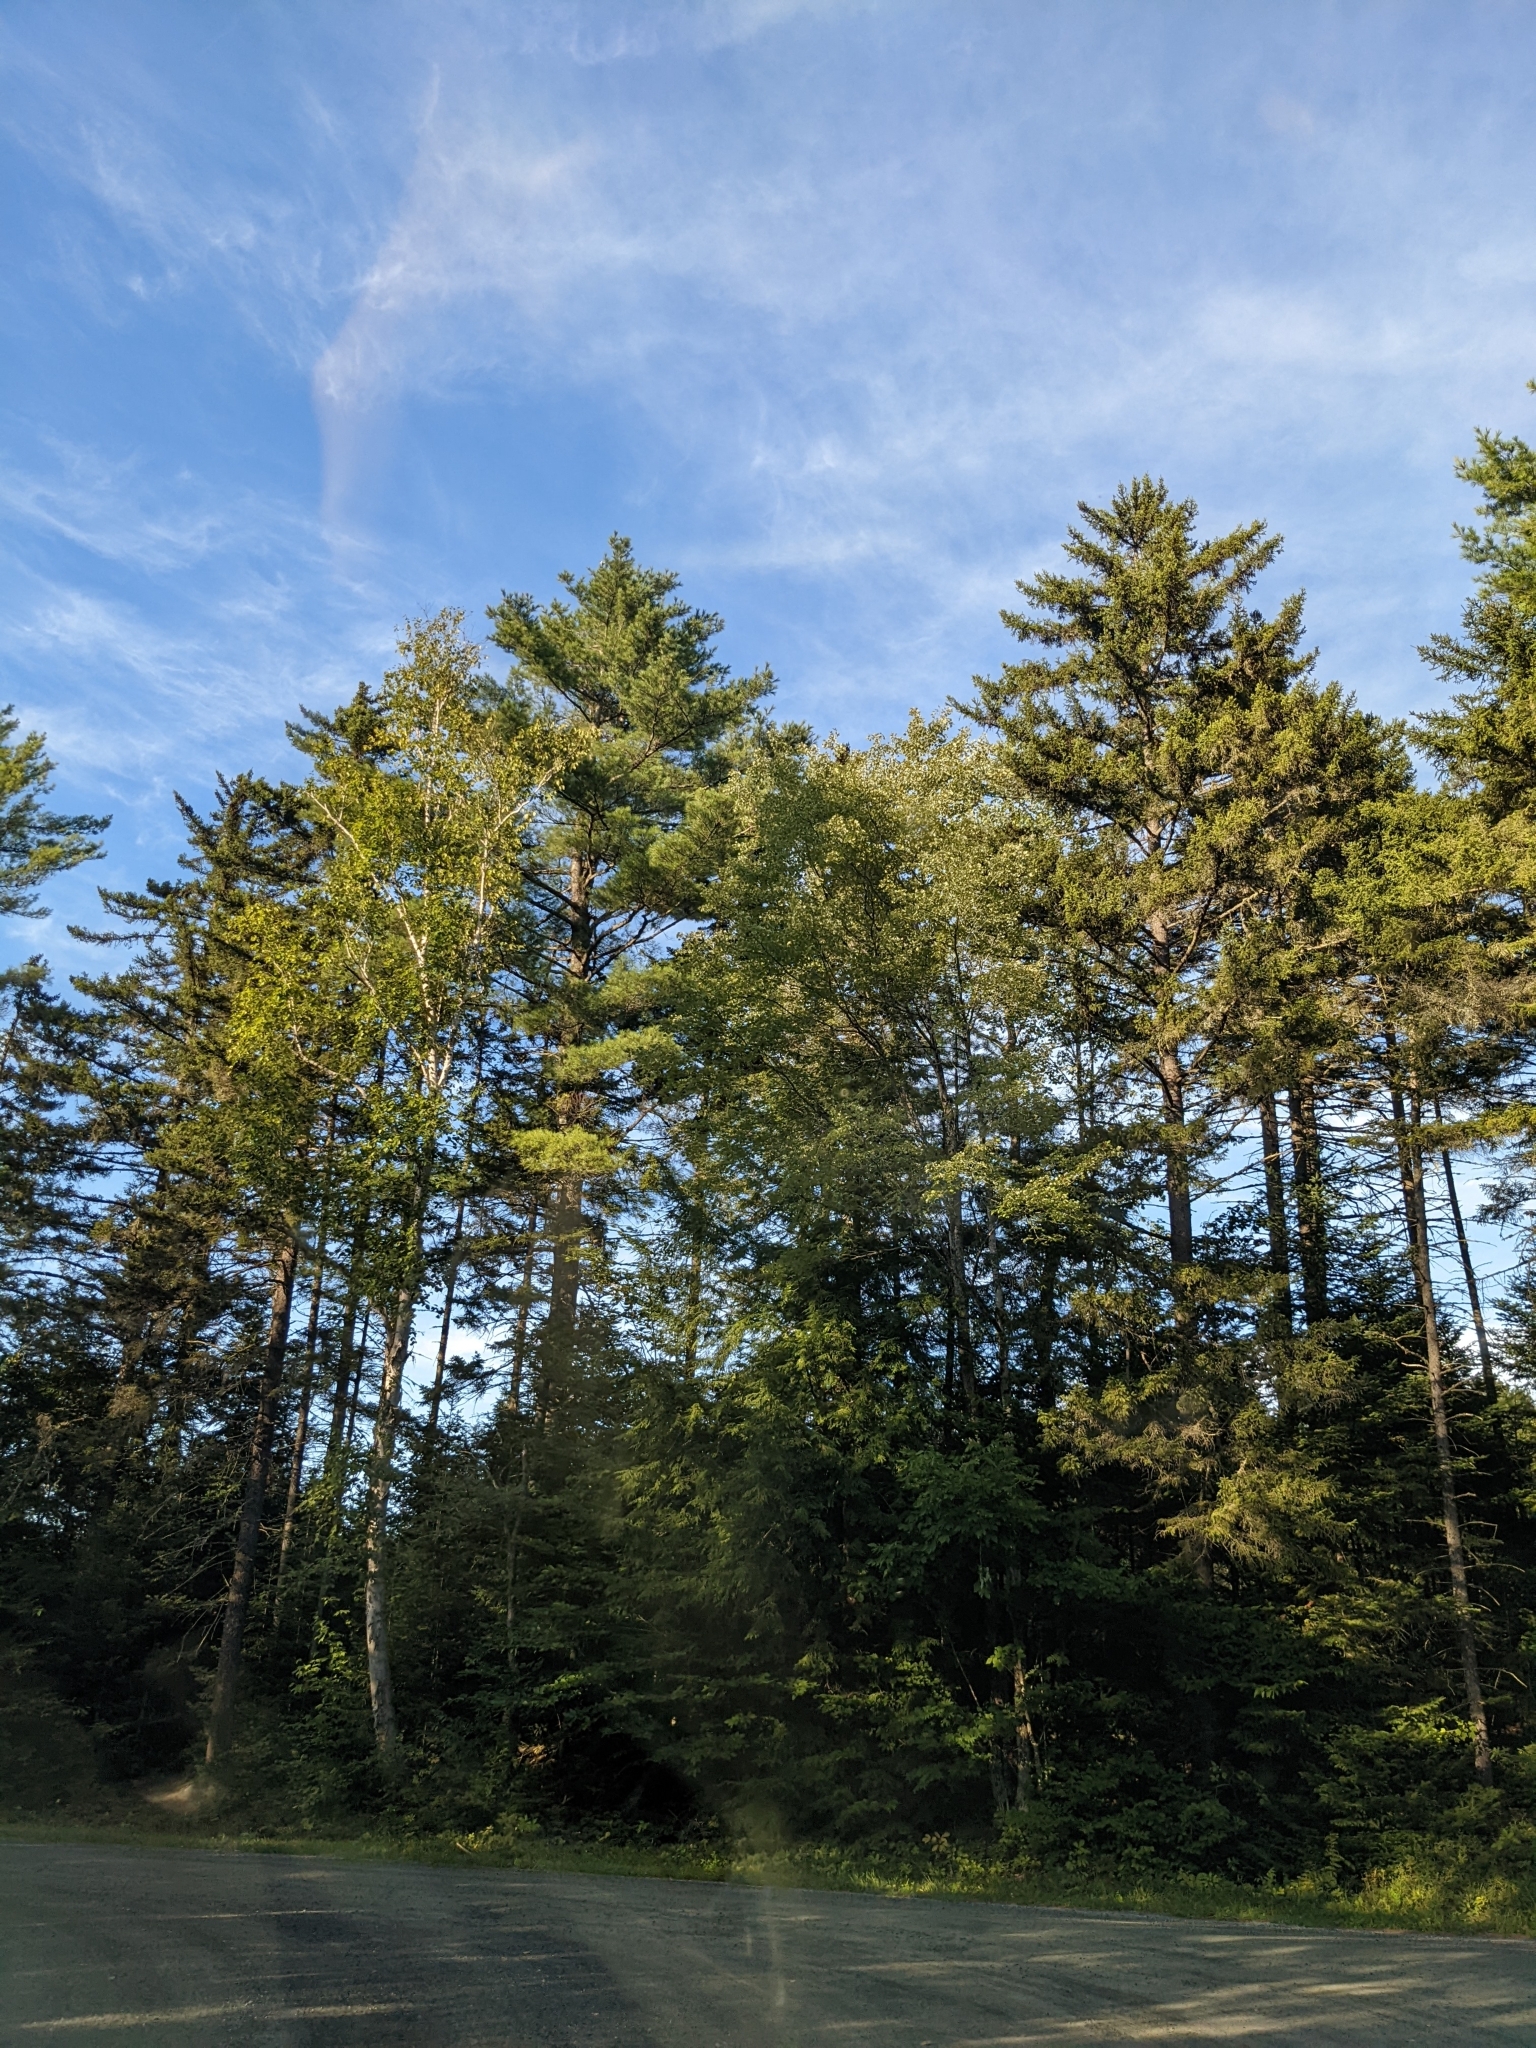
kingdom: Plantae
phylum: Tracheophyta
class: Pinopsida
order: Pinales
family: Pinaceae
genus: Pinus
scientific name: Pinus strobus
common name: Weymouth pine
